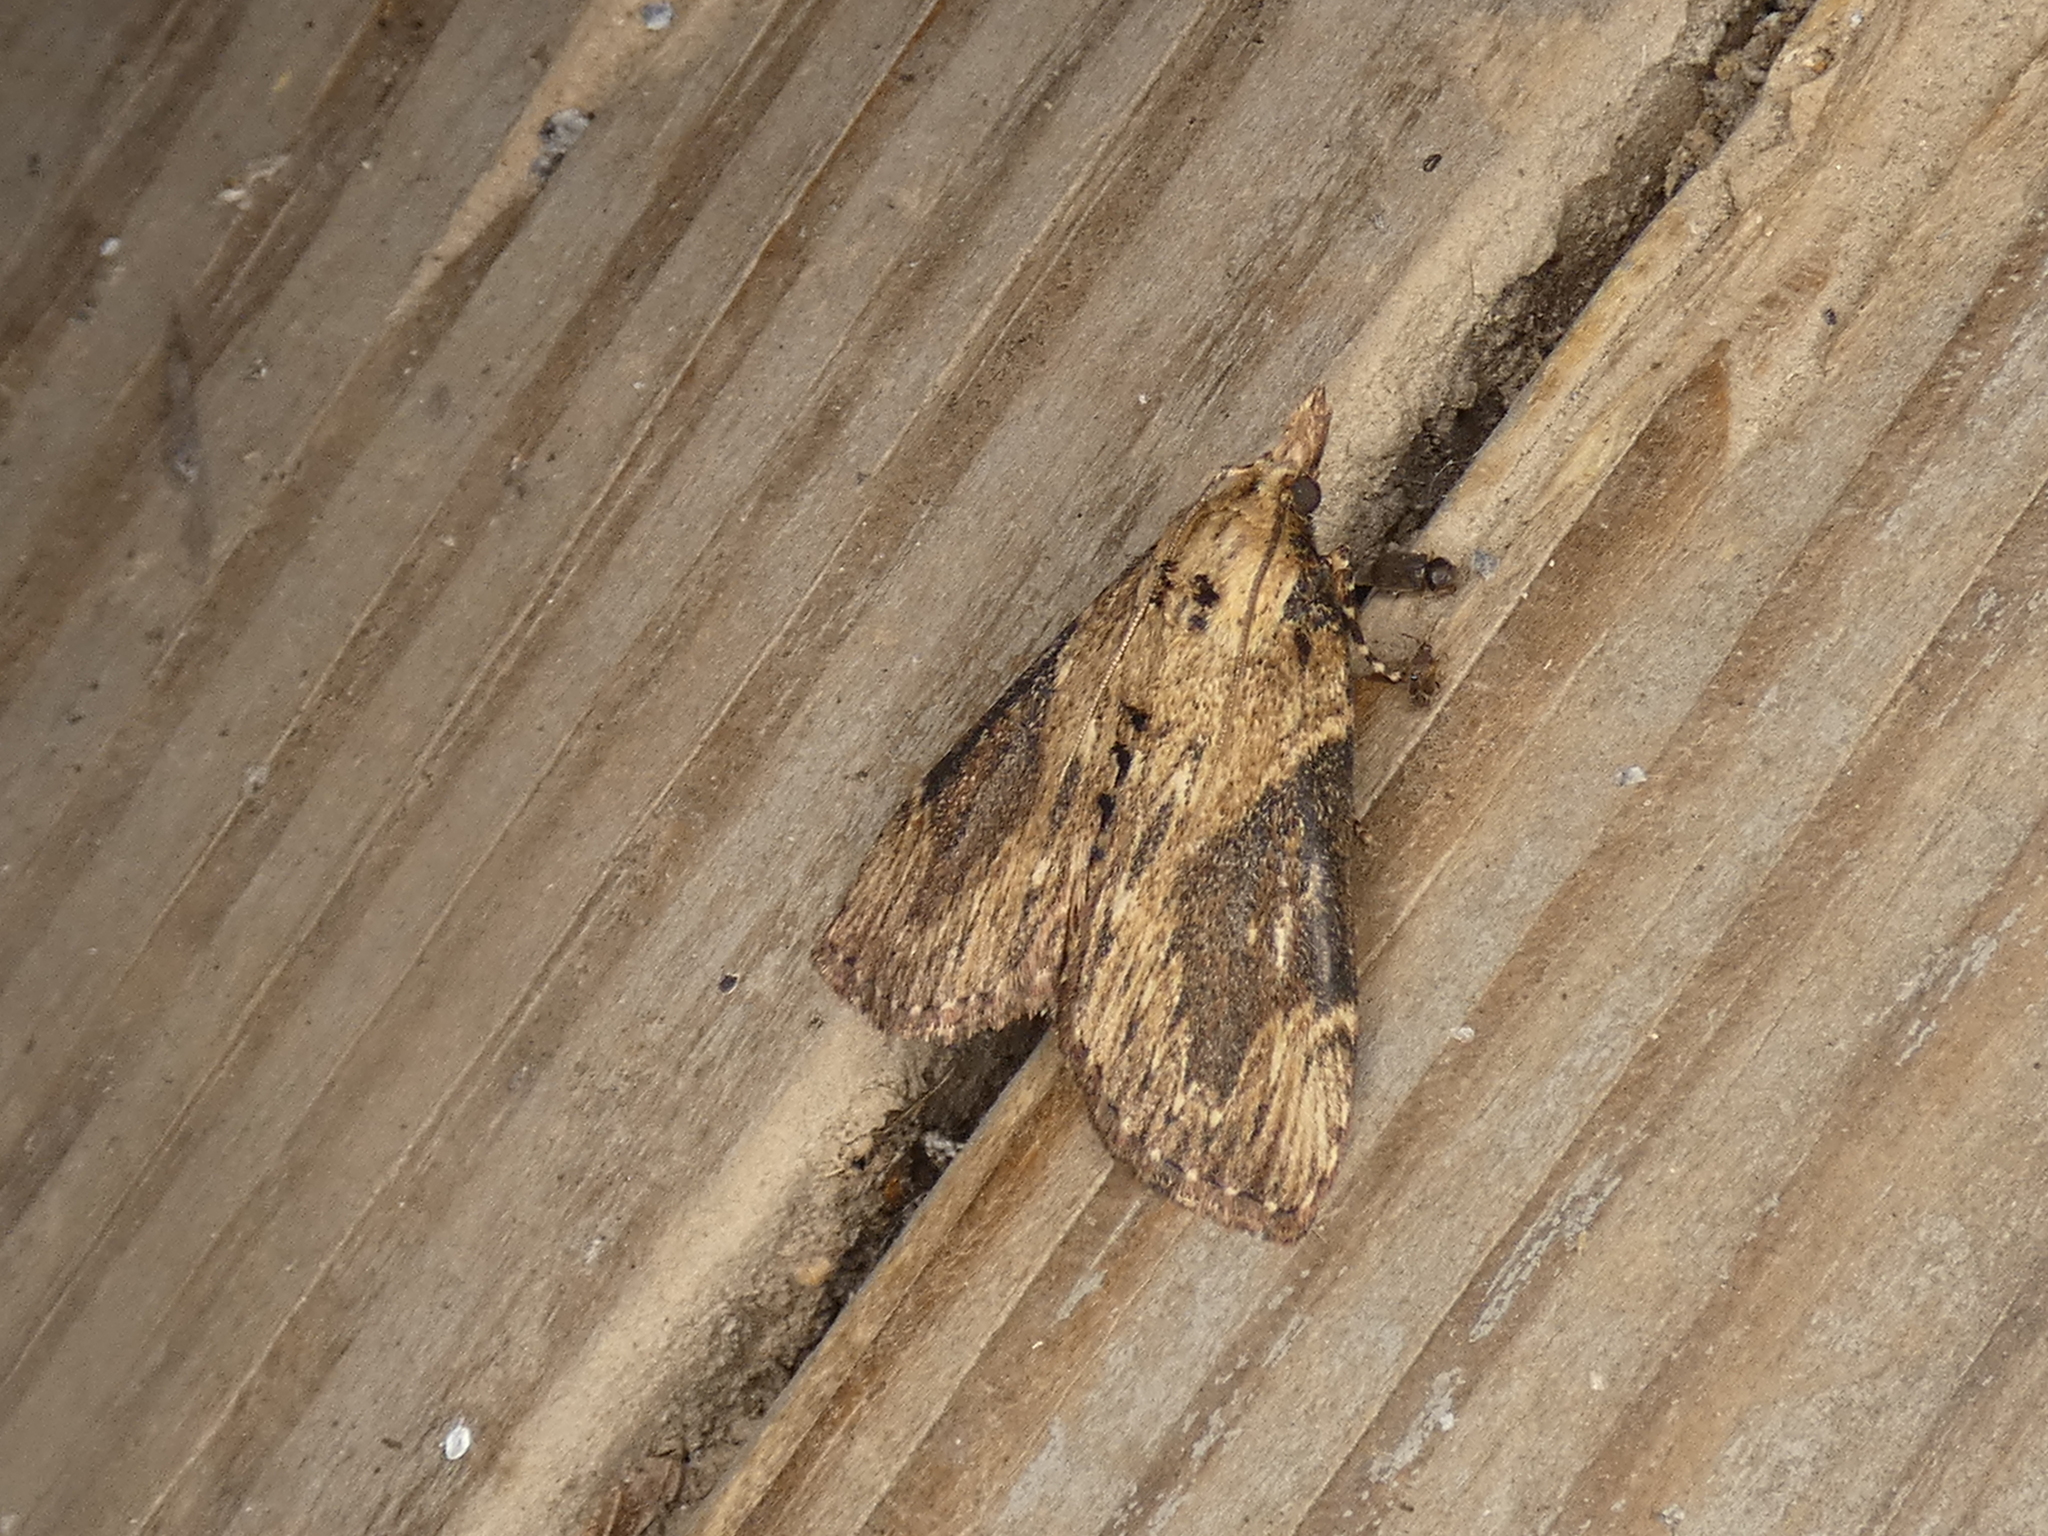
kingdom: Animalia
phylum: Arthropoda
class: Insecta
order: Lepidoptera
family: Pyralidae
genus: Omphalocera
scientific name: Omphalocera cariosa
